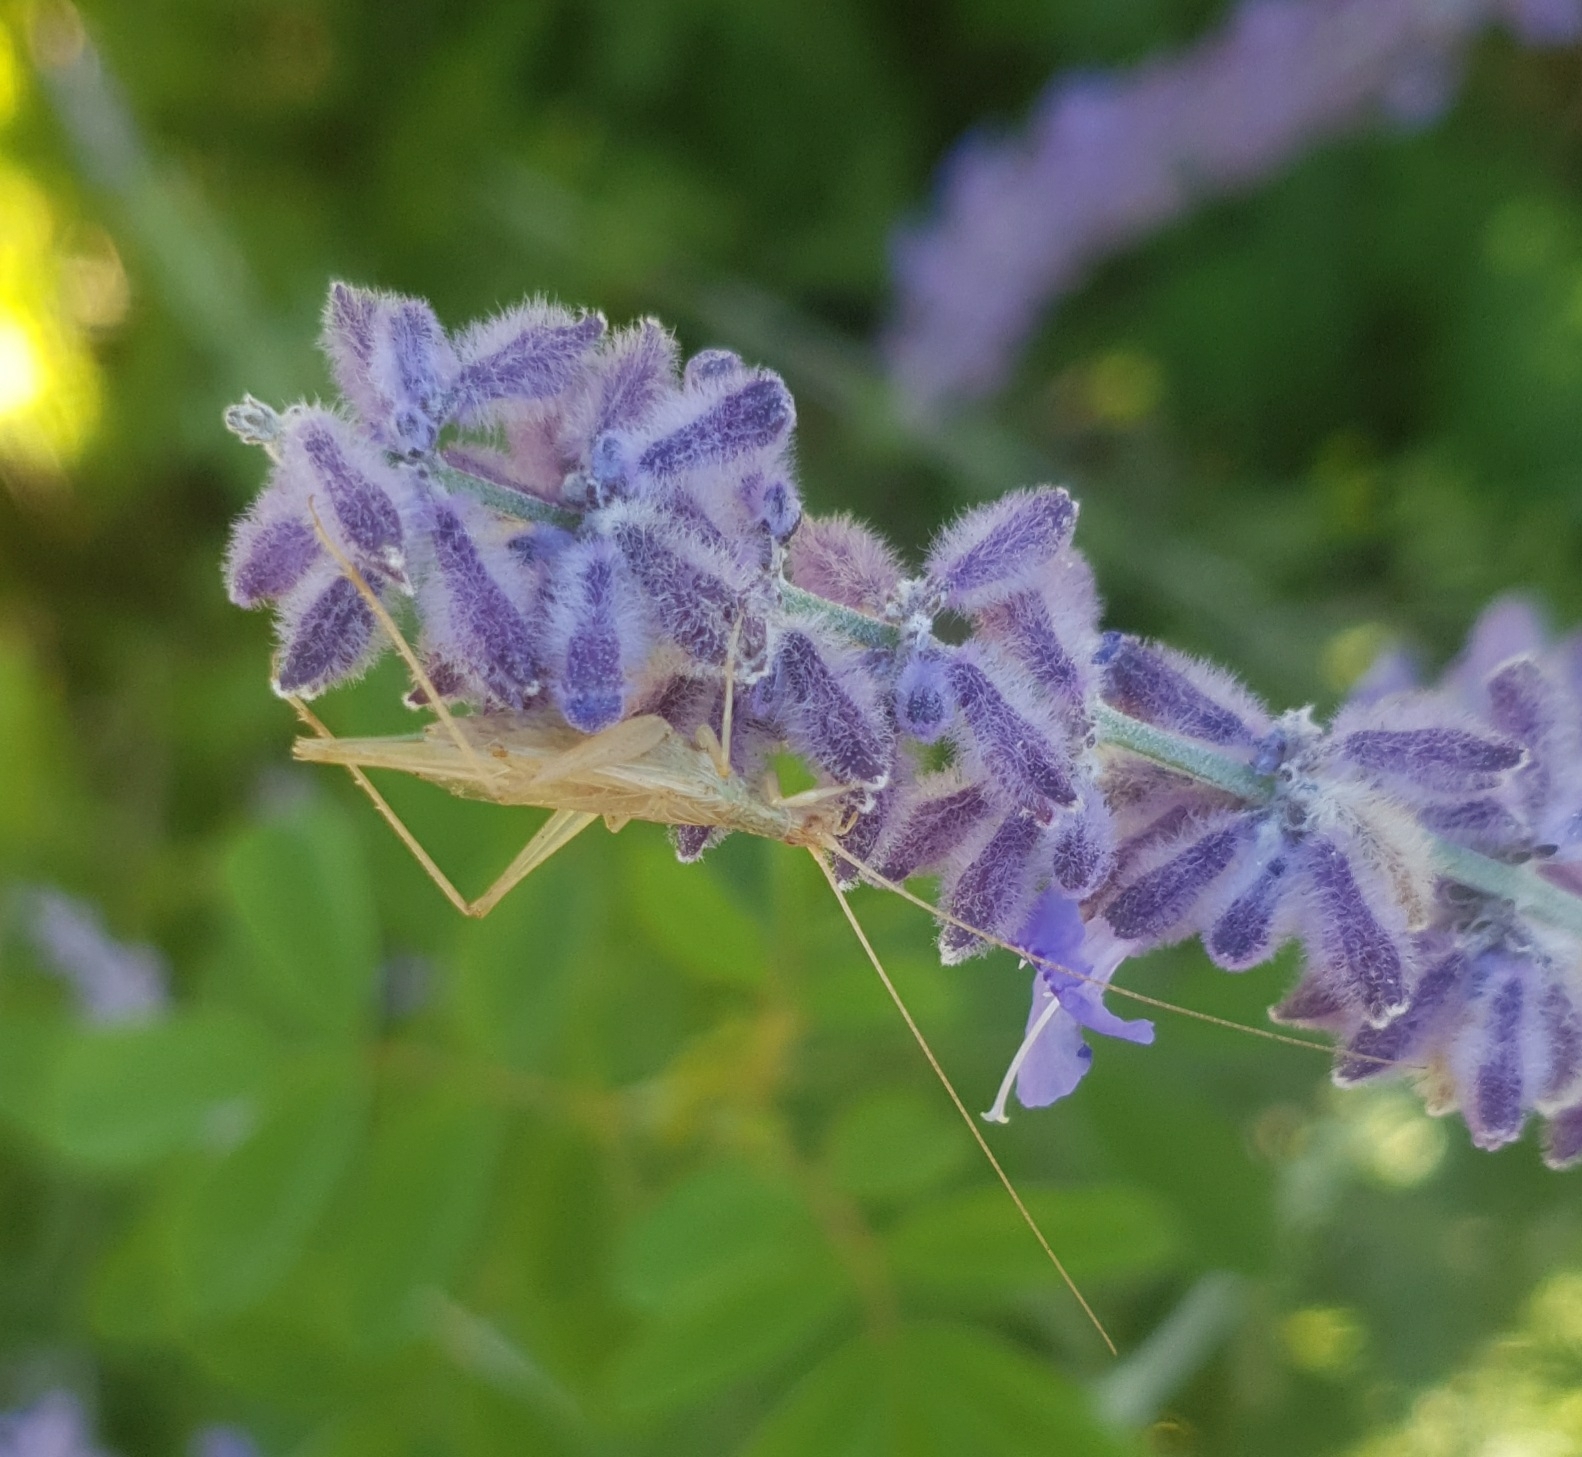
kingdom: Animalia
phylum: Arthropoda
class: Insecta
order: Orthoptera
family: Gryllidae
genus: Oecanthus
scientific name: Oecanthus pellucens
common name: Tree-cricket
